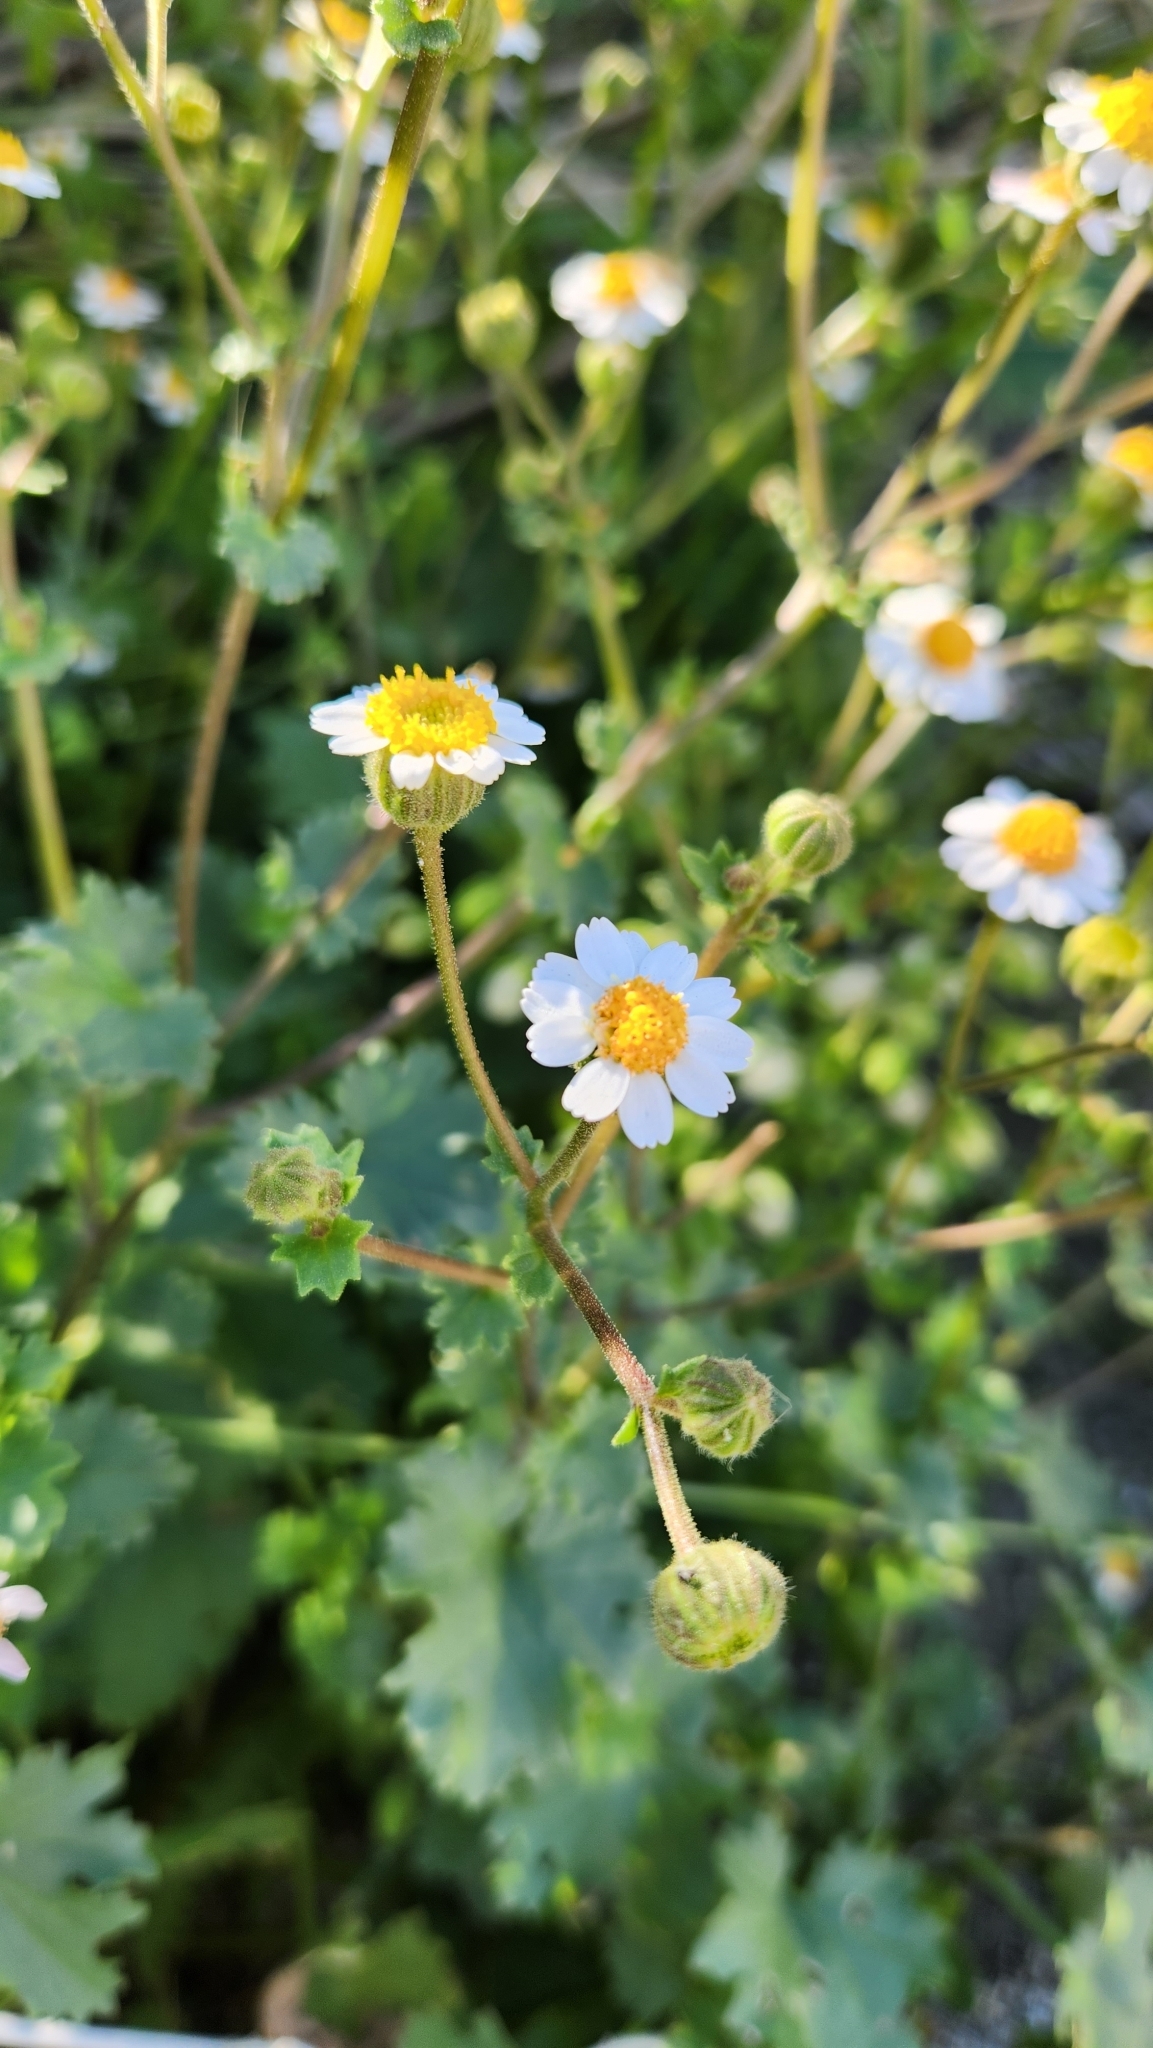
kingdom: Plantae
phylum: Tracheophyta
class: Magnoliopsida
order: Asterales
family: Asteraceae
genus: Laphamia
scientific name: Laphamia emoryi
